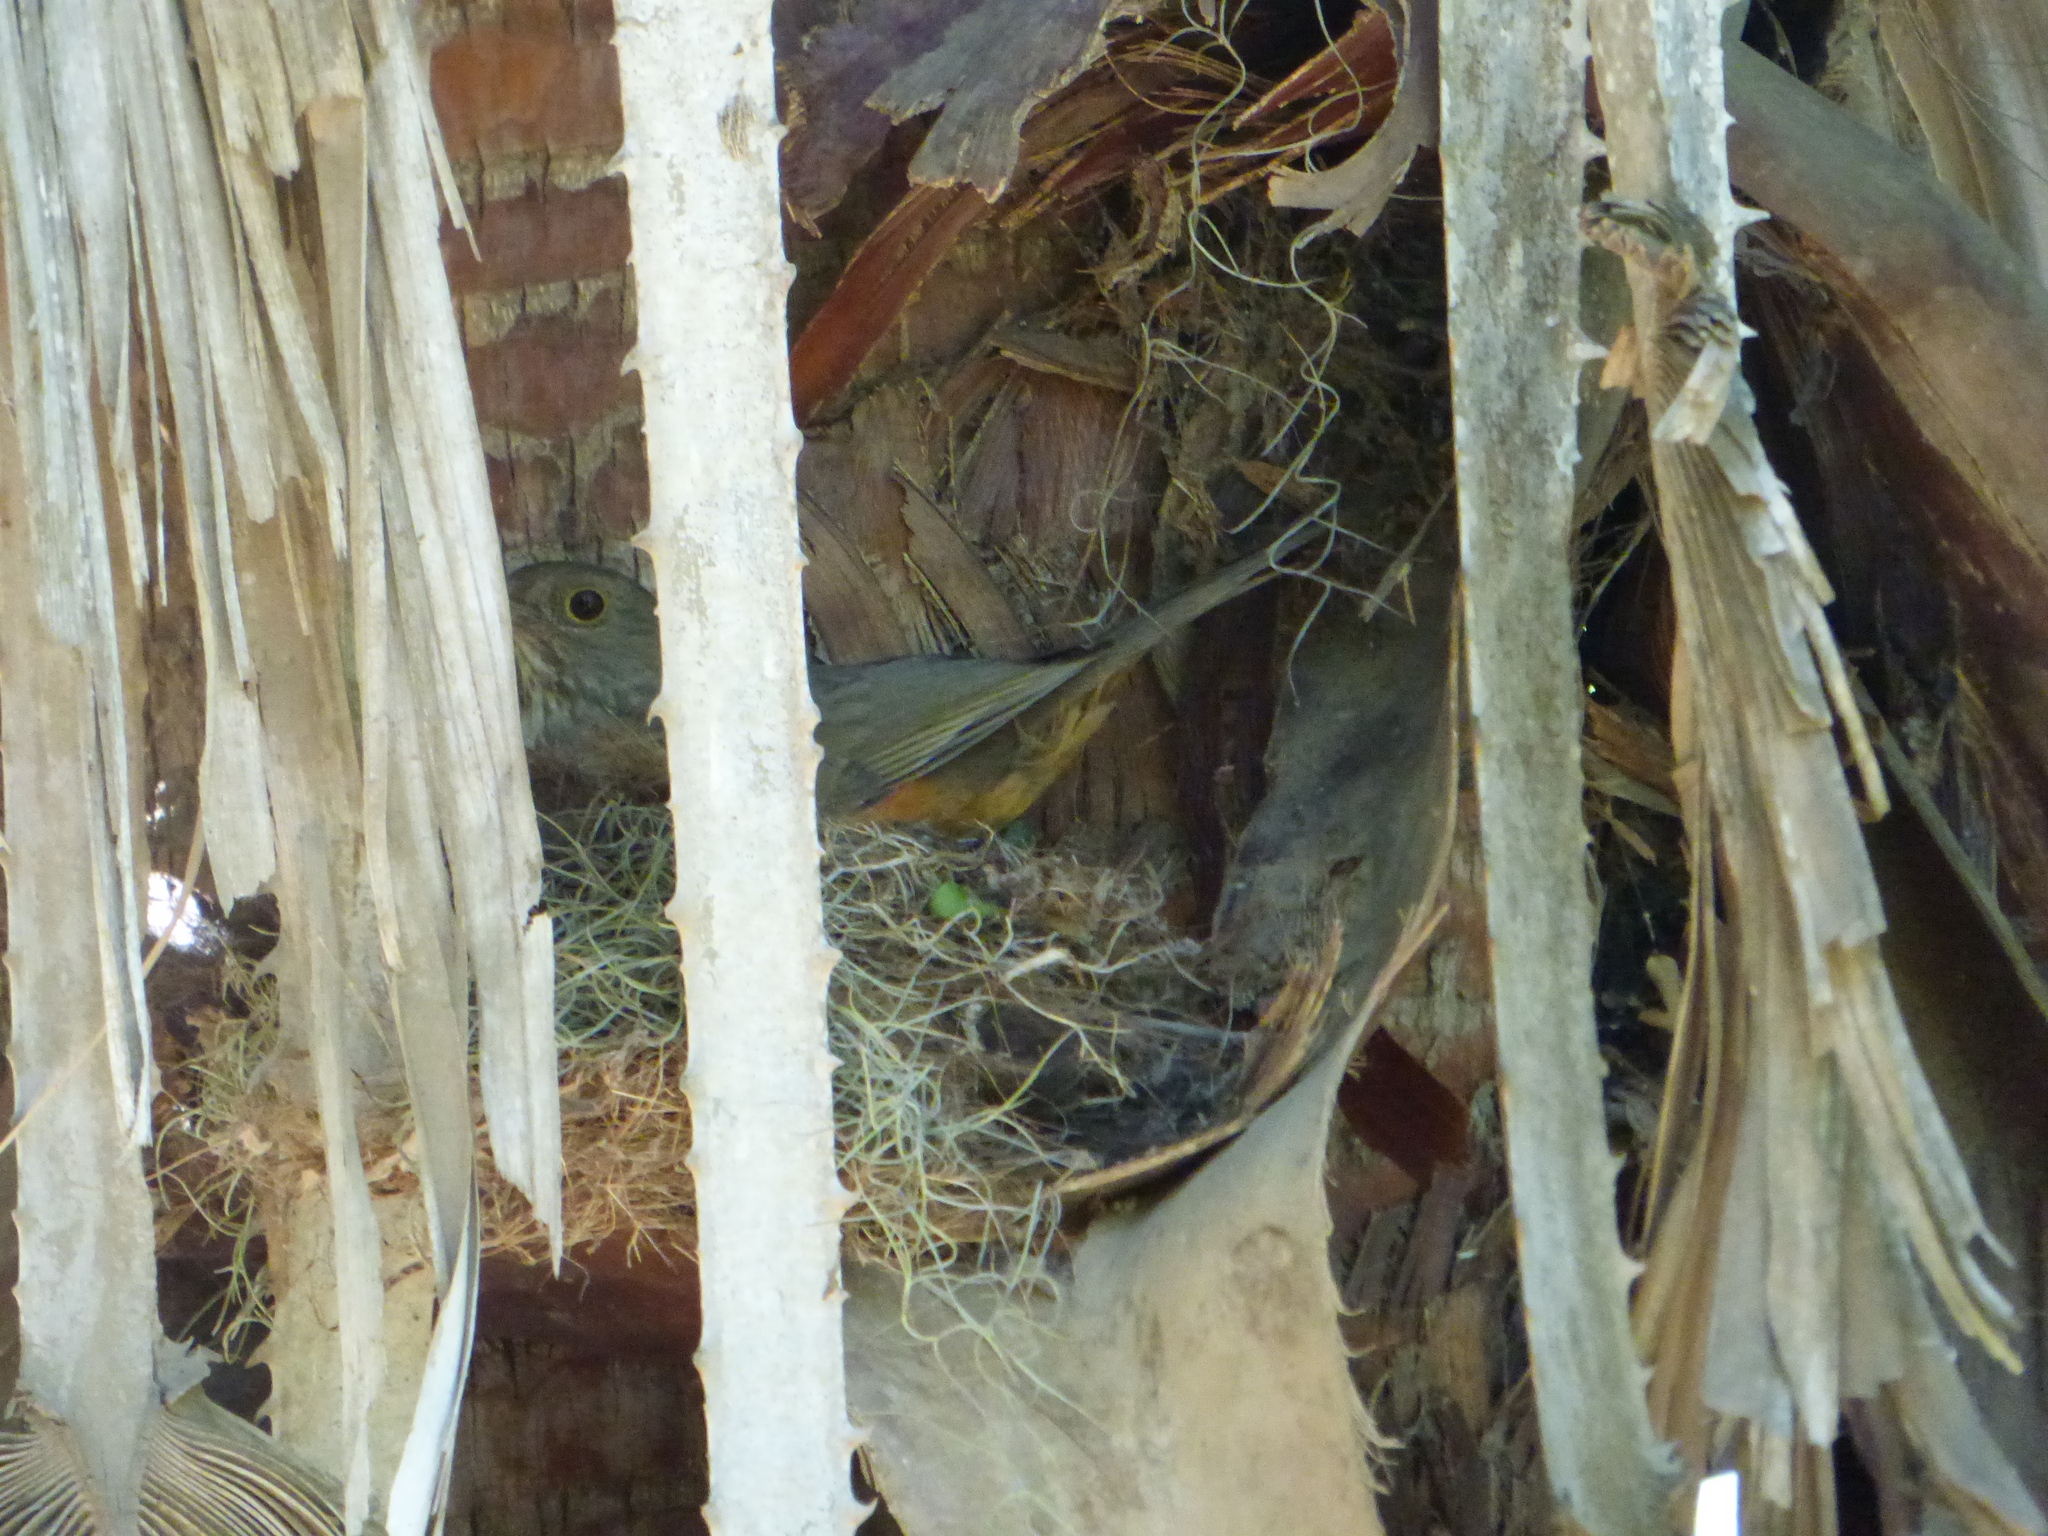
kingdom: Animalia
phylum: Chordata
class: Aves
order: Passeriformes
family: Turdidae
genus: Turdus
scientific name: Turdus rufiventris
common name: Rufous-bellied thrush
